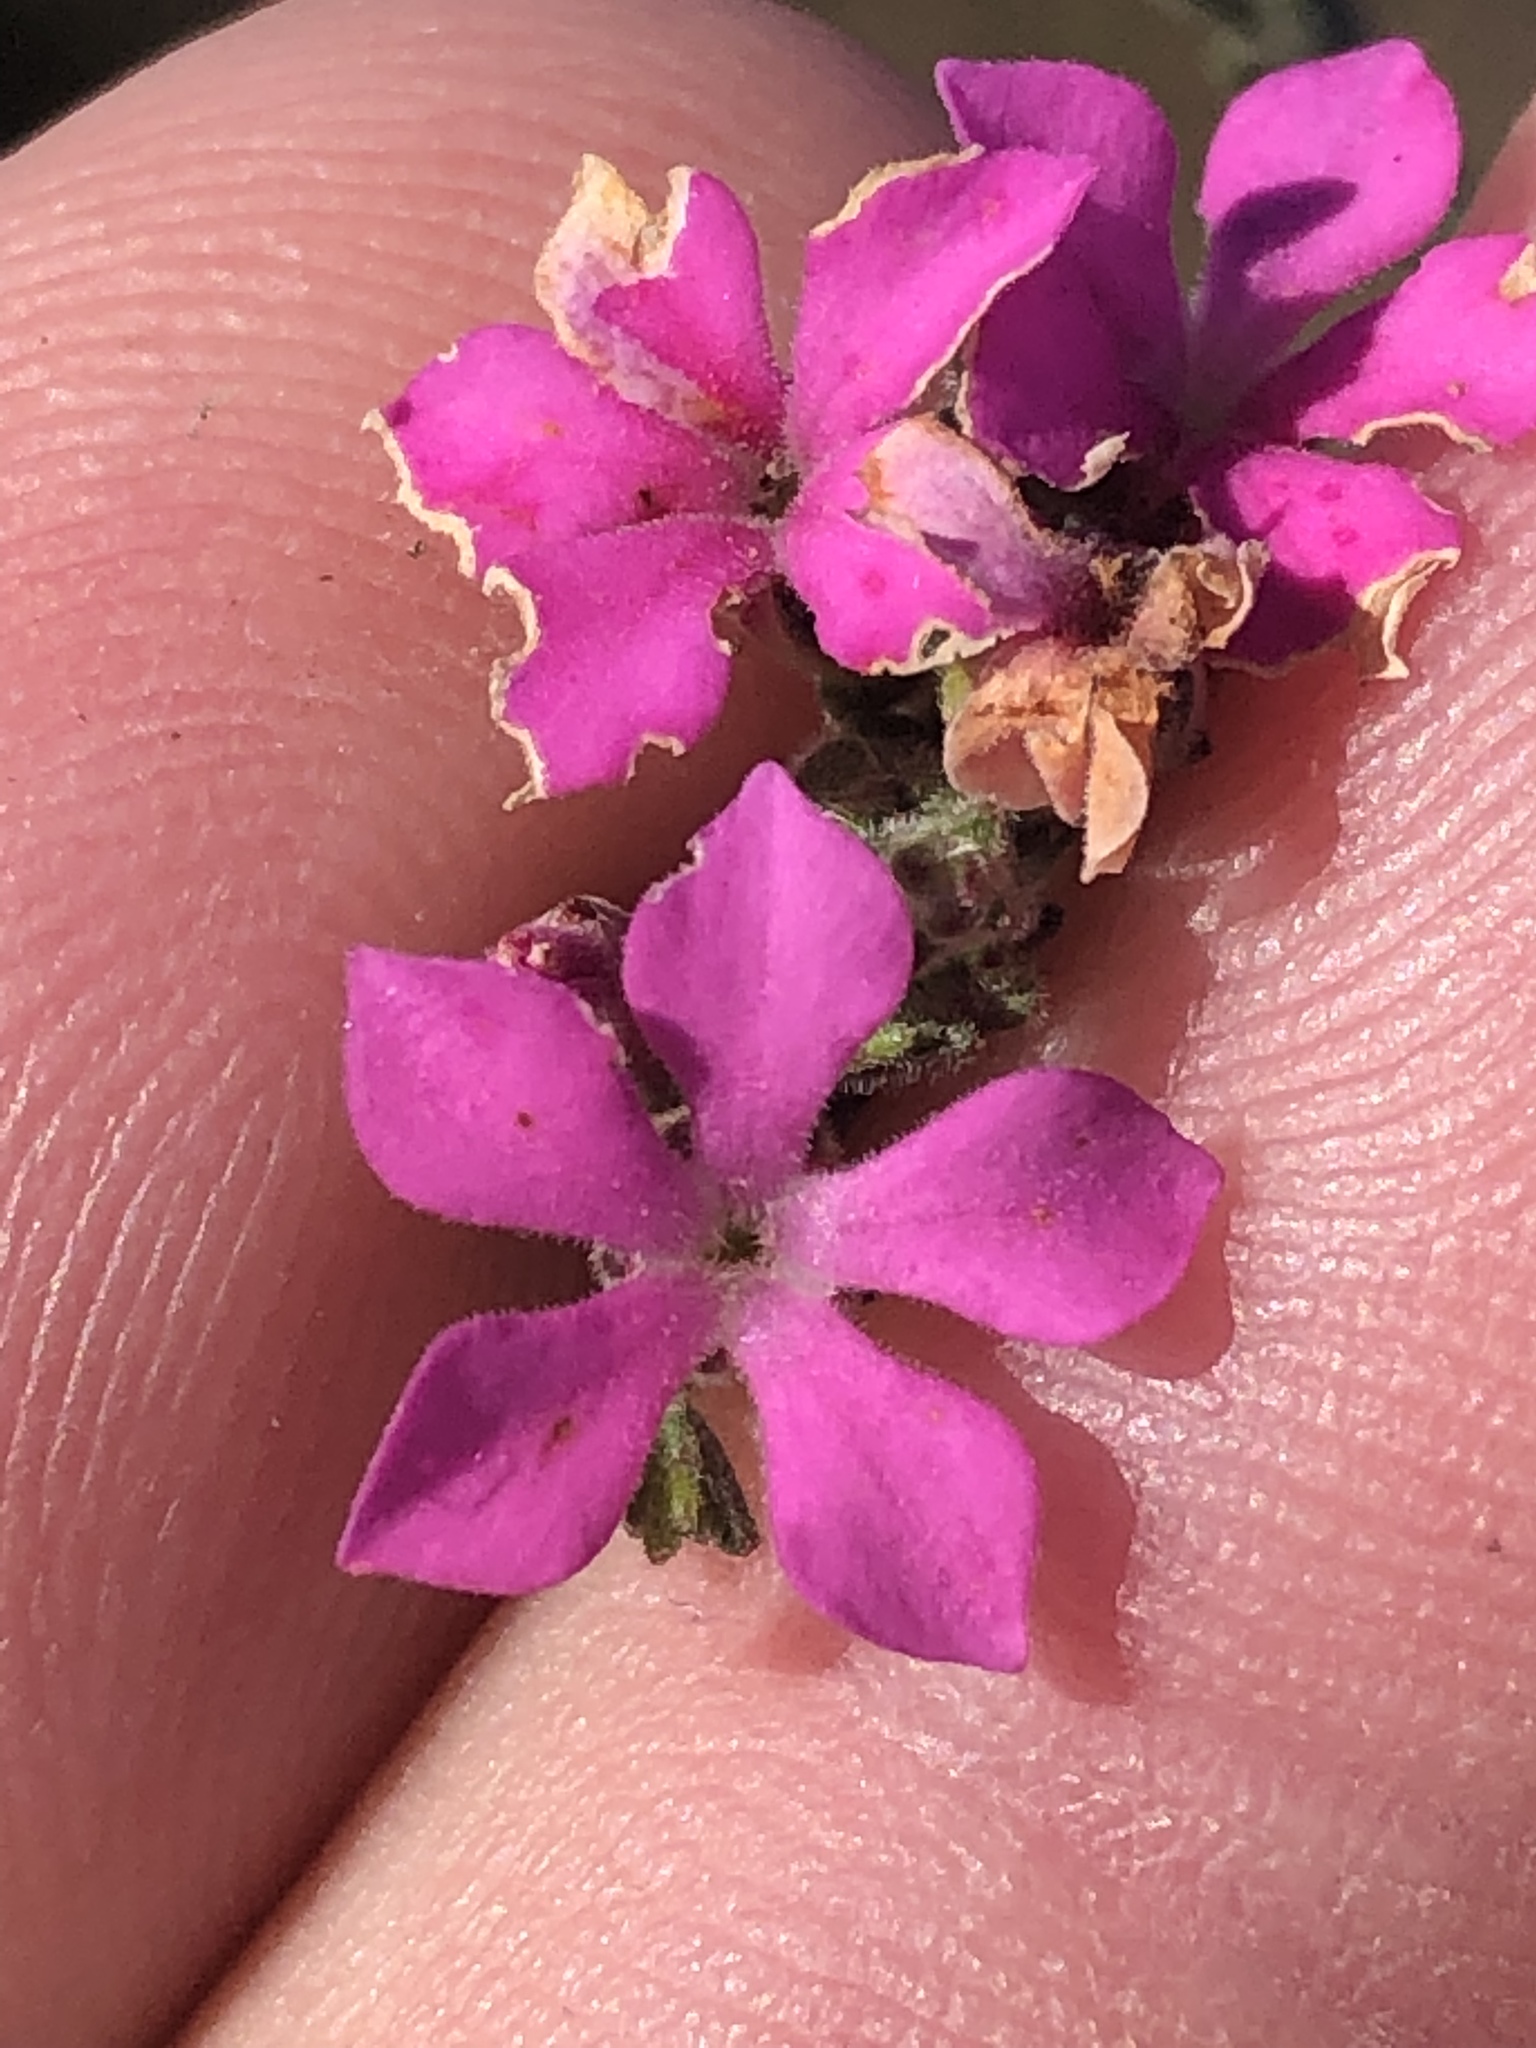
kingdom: Plantae
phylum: Tracheophyta
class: Magnoliopsida
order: Sapindales
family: Rutaceae
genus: Acmadenia
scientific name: Acmadenia laxa
